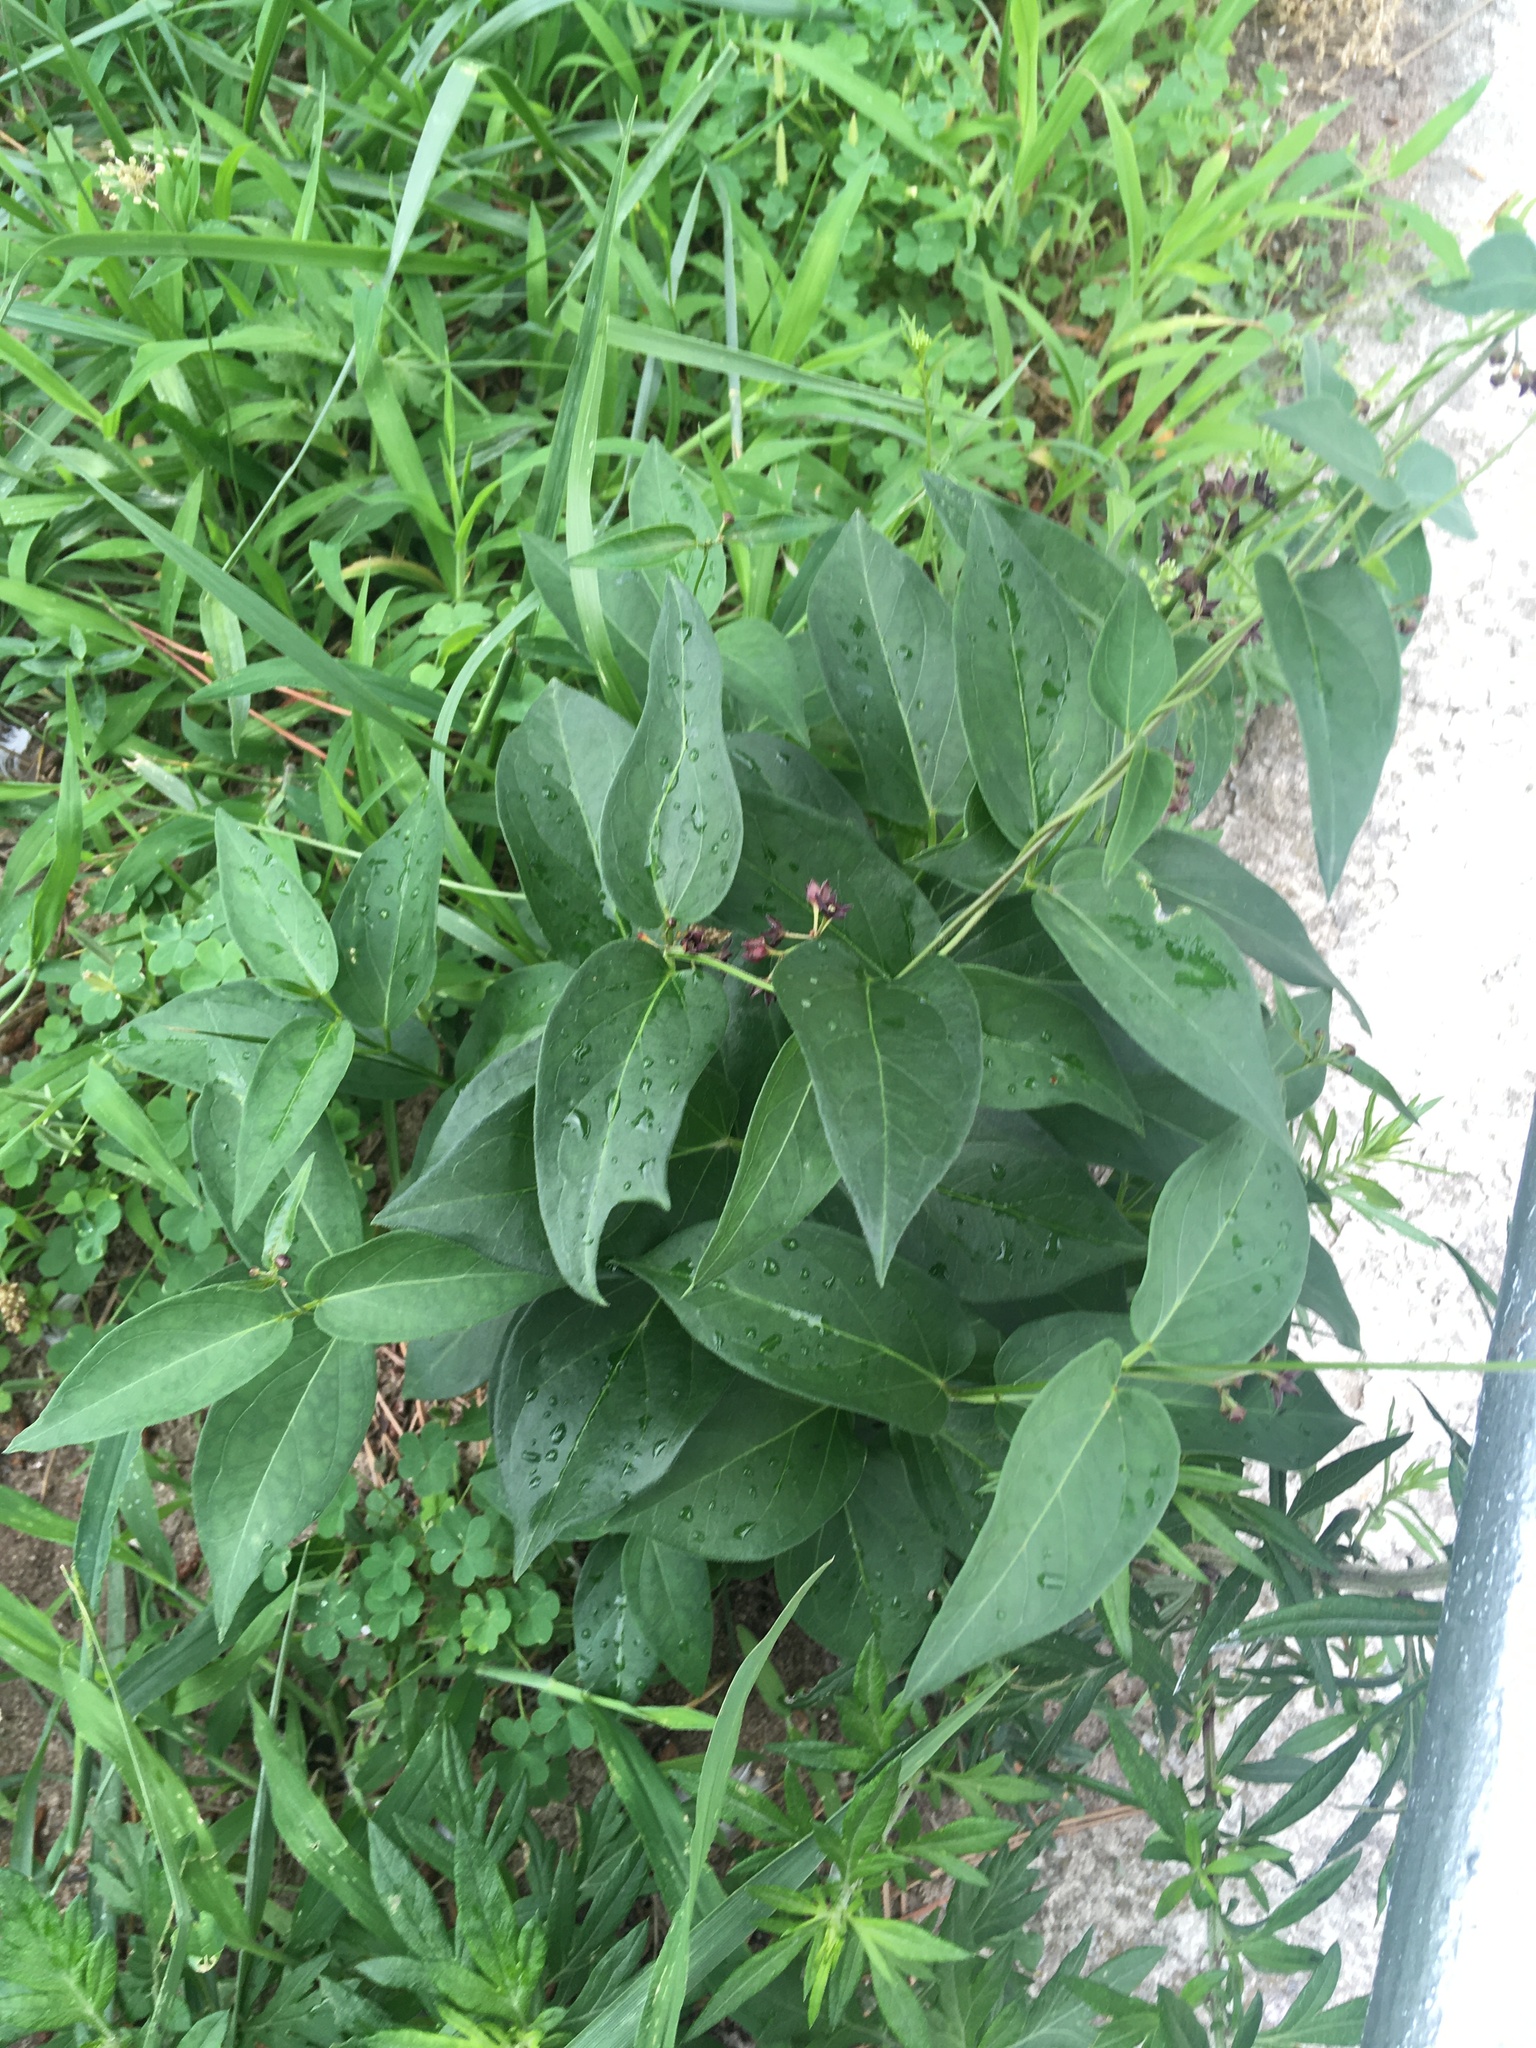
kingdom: Plantae
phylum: Tracheophyta
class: Magnoliopsida
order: Gentianales
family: Apocynaceae
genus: Vincetoxicum
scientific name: Vincetoxicum nigrum
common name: Black swallow-wort
